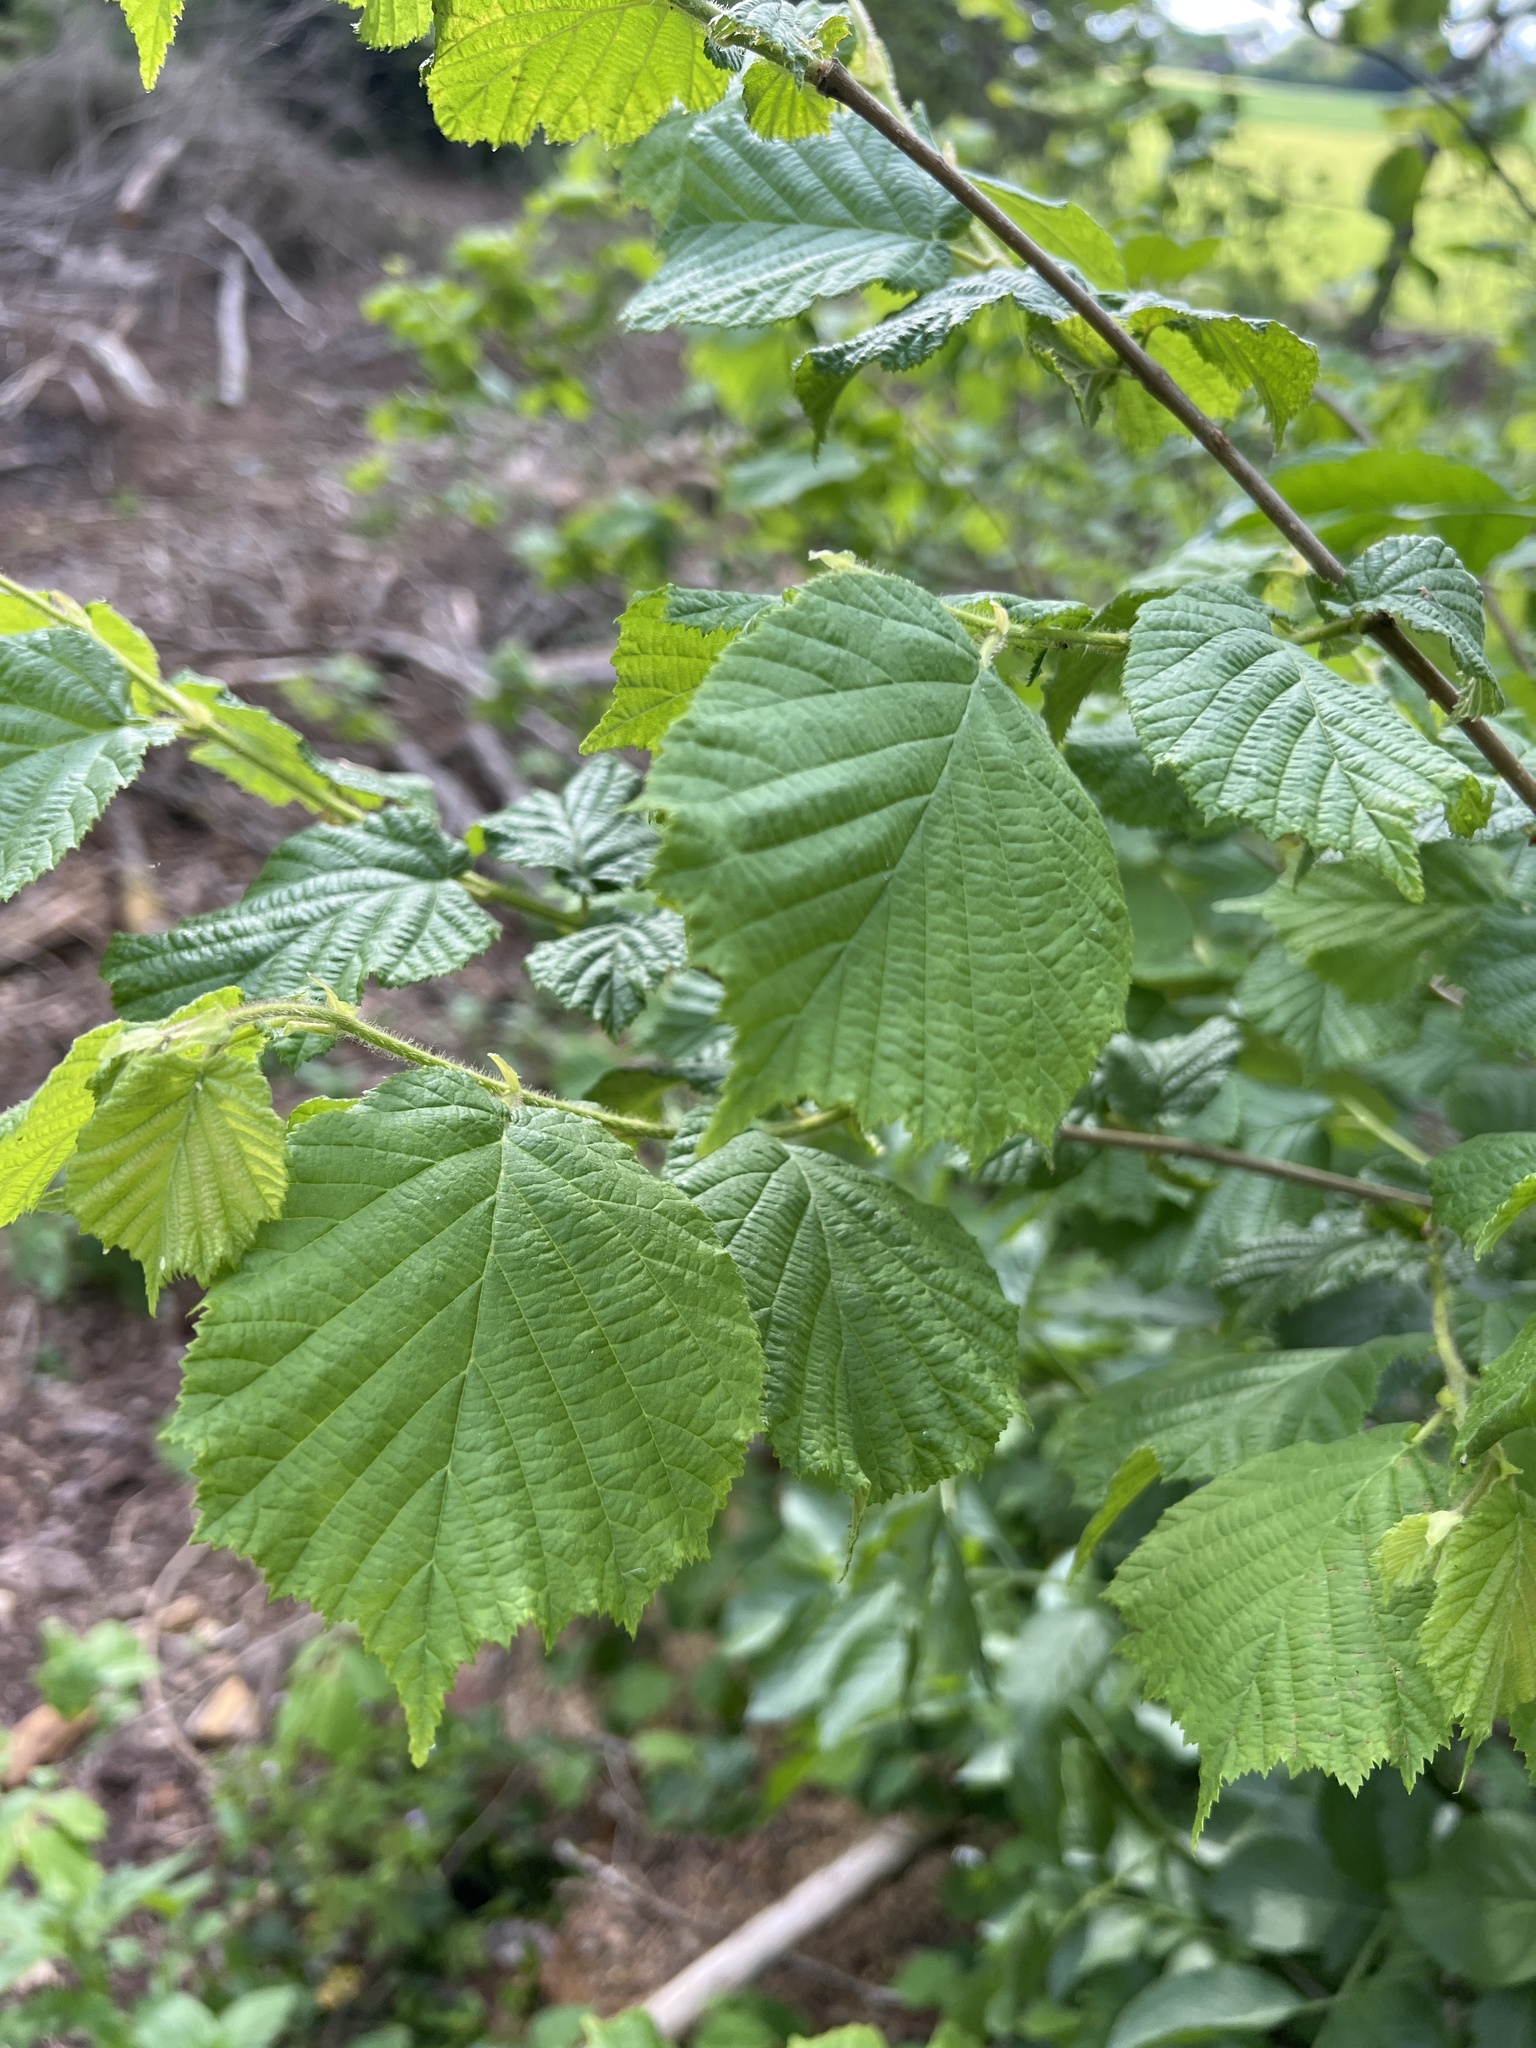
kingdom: Plantae
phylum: Tracheophyta
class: Magnoliopsida
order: Fagales
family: Betulaceae
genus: Corylus
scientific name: Corylus avellana
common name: European hazel
